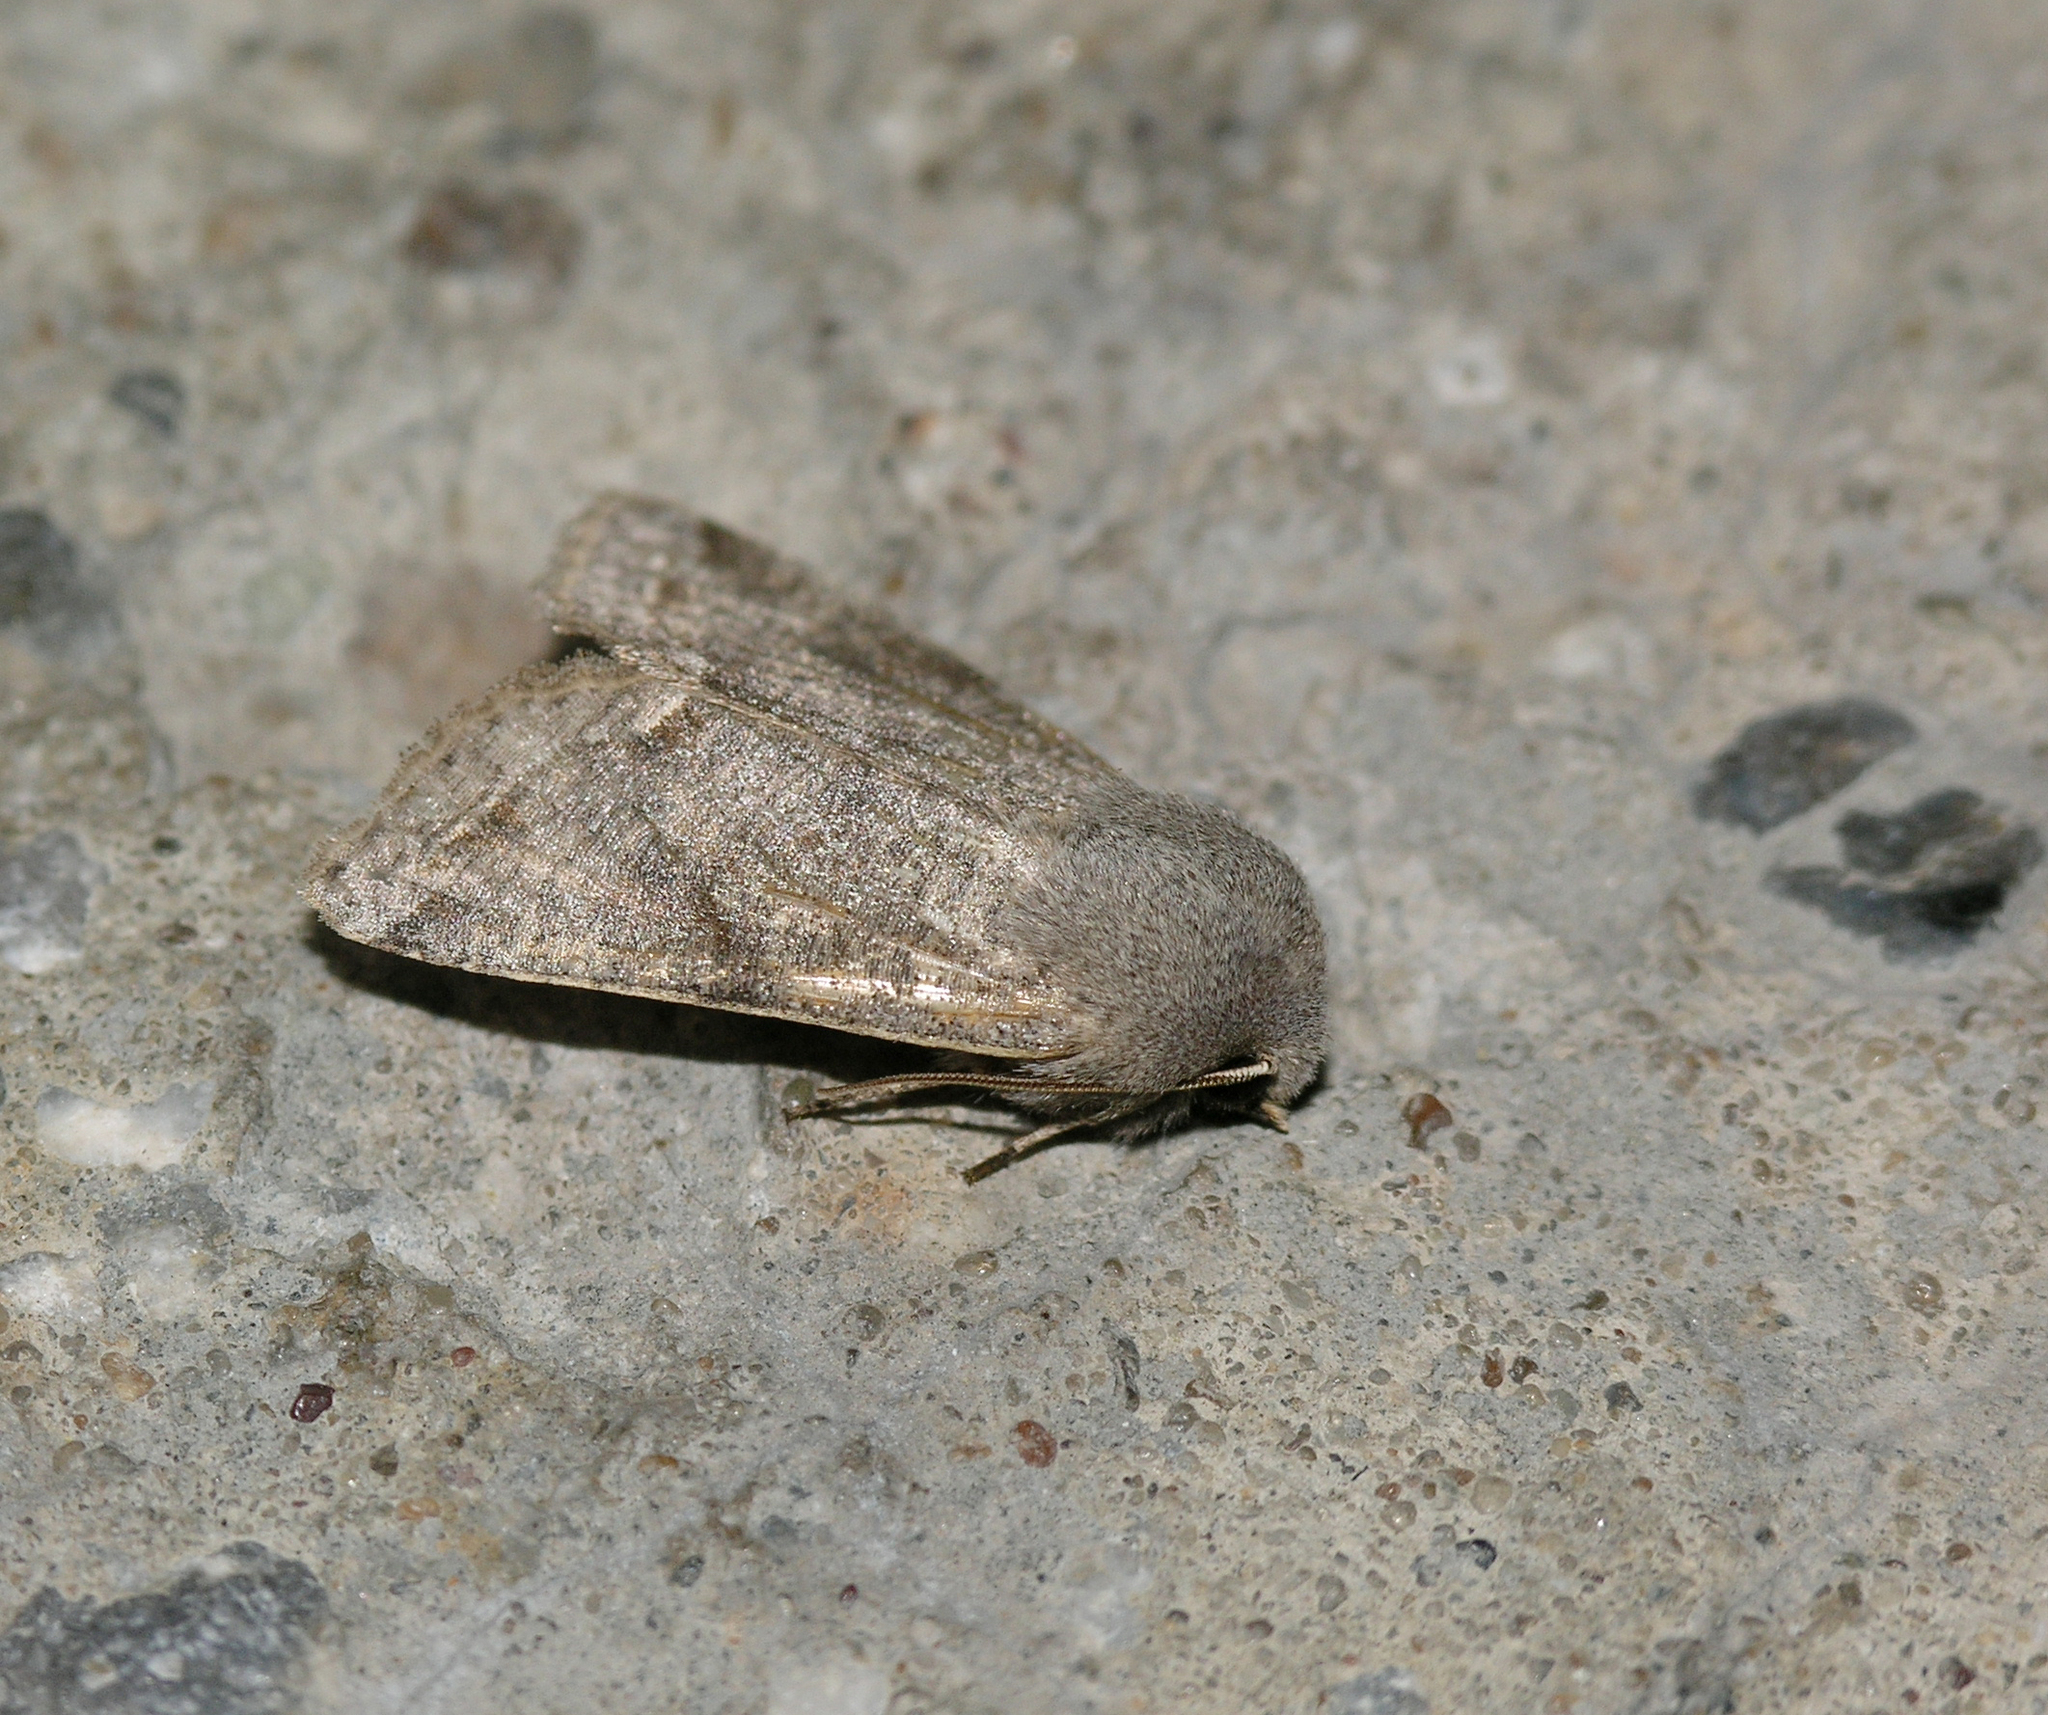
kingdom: Animalia
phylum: Arthropoda
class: Insecta
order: Lepidoptera
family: Noctuidae
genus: Orthosia
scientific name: Orthosia incerta
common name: Clouded drab
